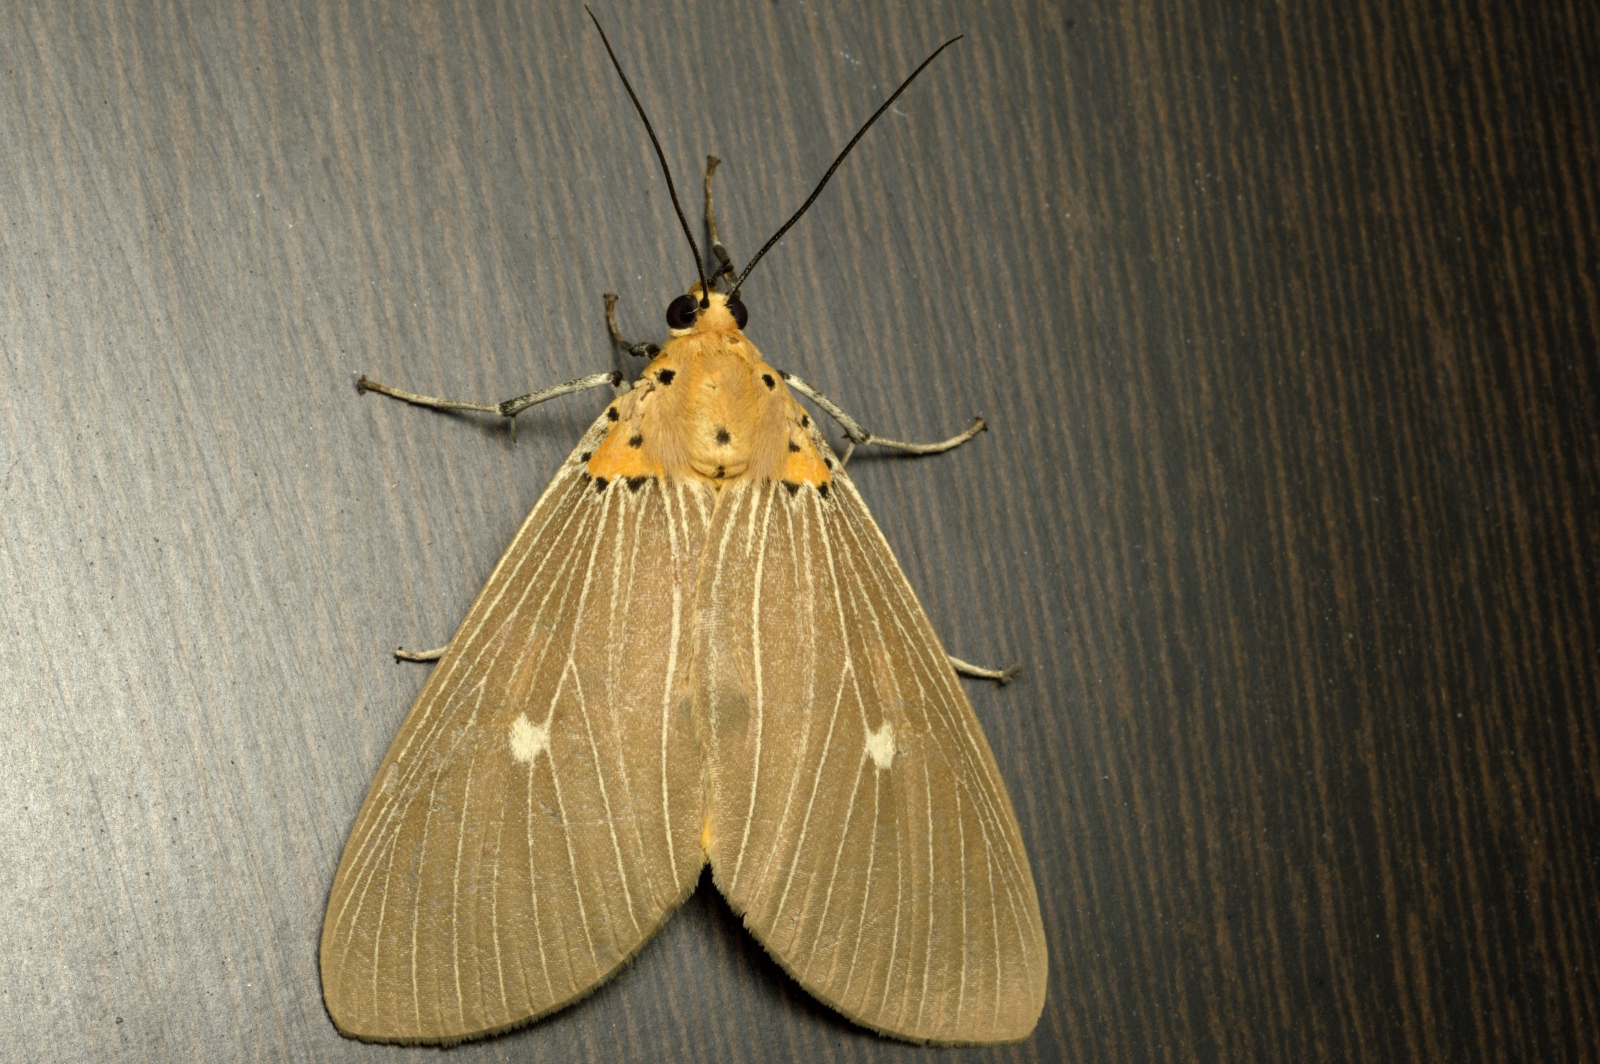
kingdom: Animalia
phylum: Arthropoda
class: Insecta
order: Lepidoptera
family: Erebidae
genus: Asota
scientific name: Asota caricae
